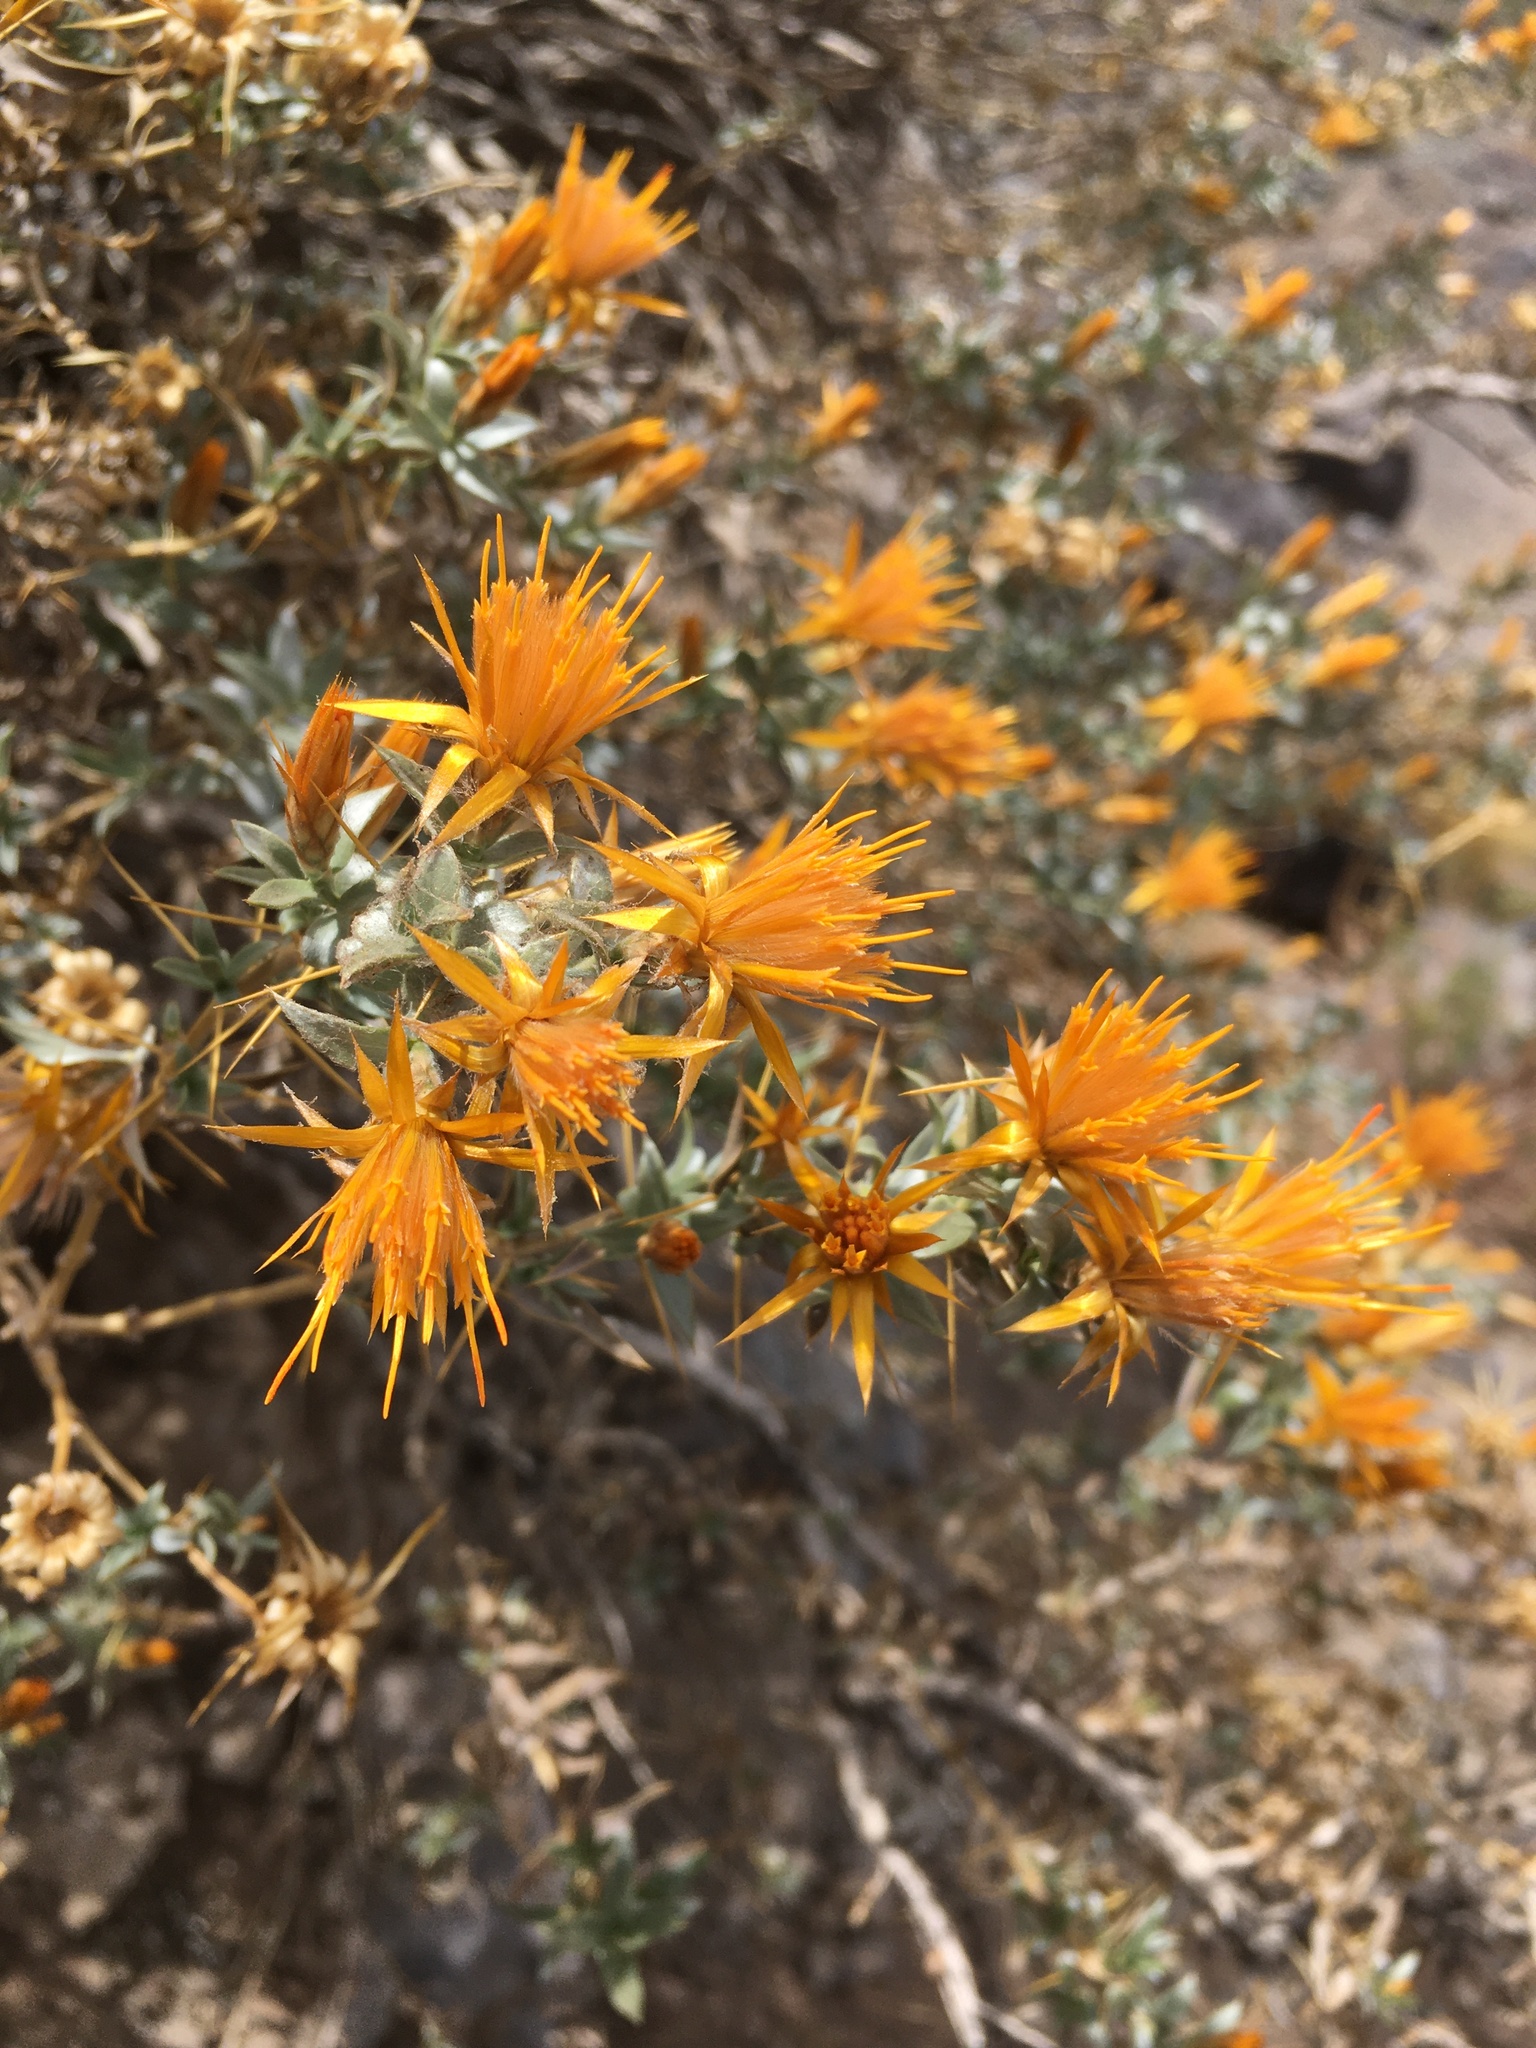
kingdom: Plantae
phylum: Tracheophyta
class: Magnoliopsida
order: Asterales
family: Asteraceae
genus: Chuquiraga
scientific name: Chuquiraga oppositifolia
